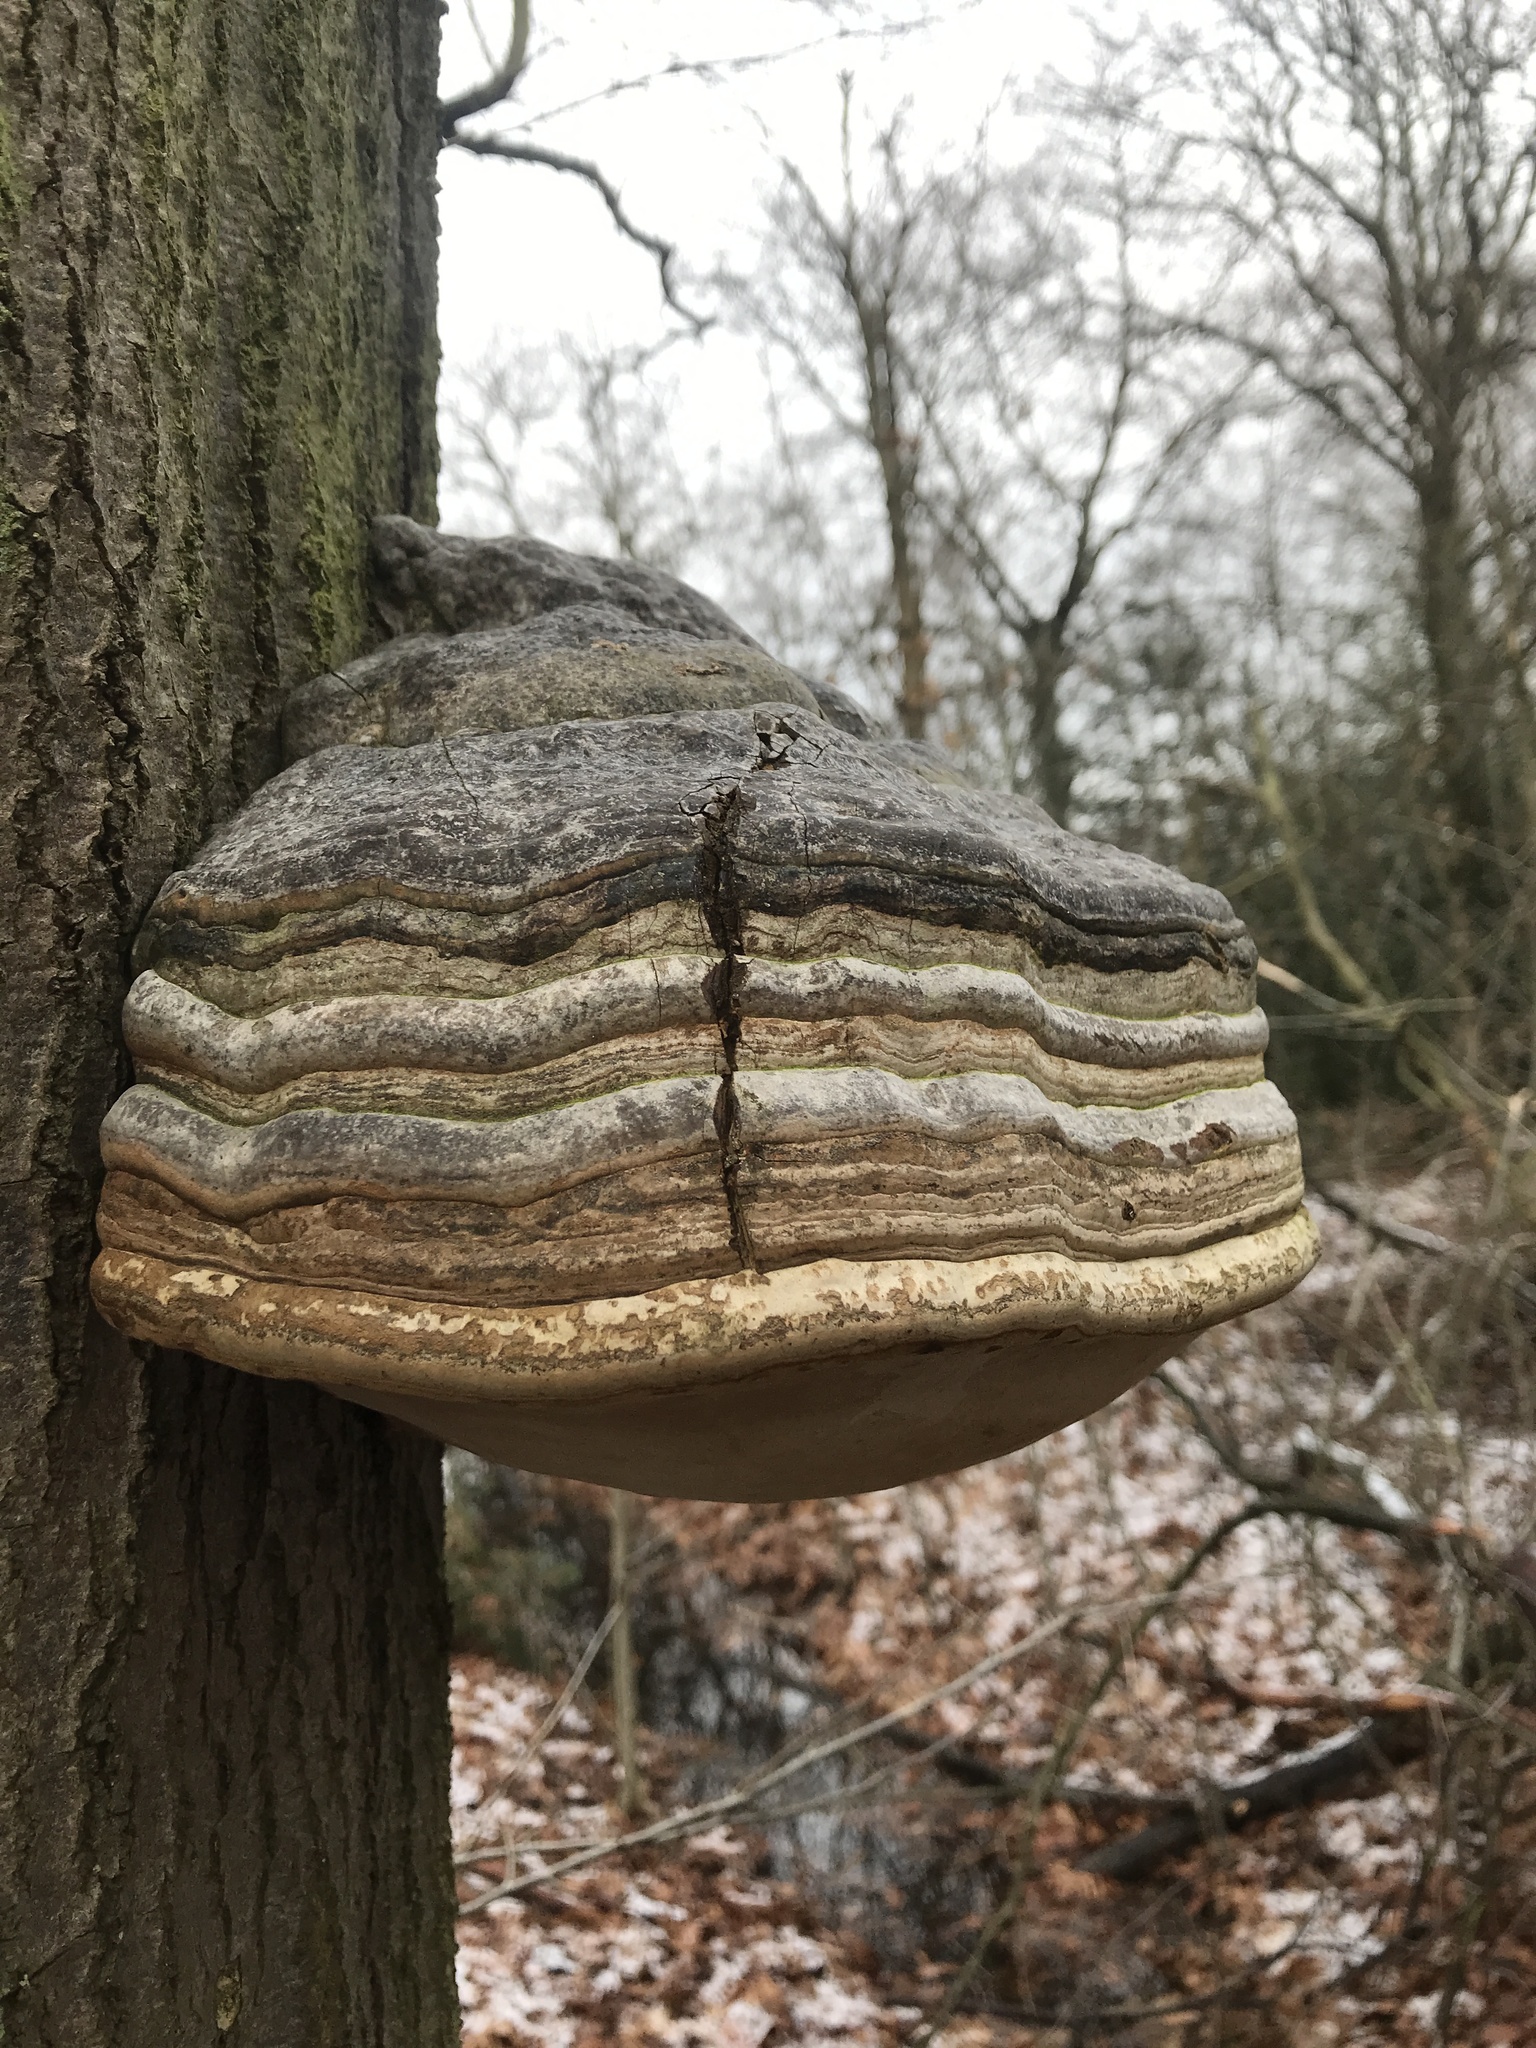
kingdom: Fungi
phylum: Basidiomycota
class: Agaricomycetes
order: Polyporales
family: Polyporaceae
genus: Fomes
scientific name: Fomes fomentarius
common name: Hoof fungus
